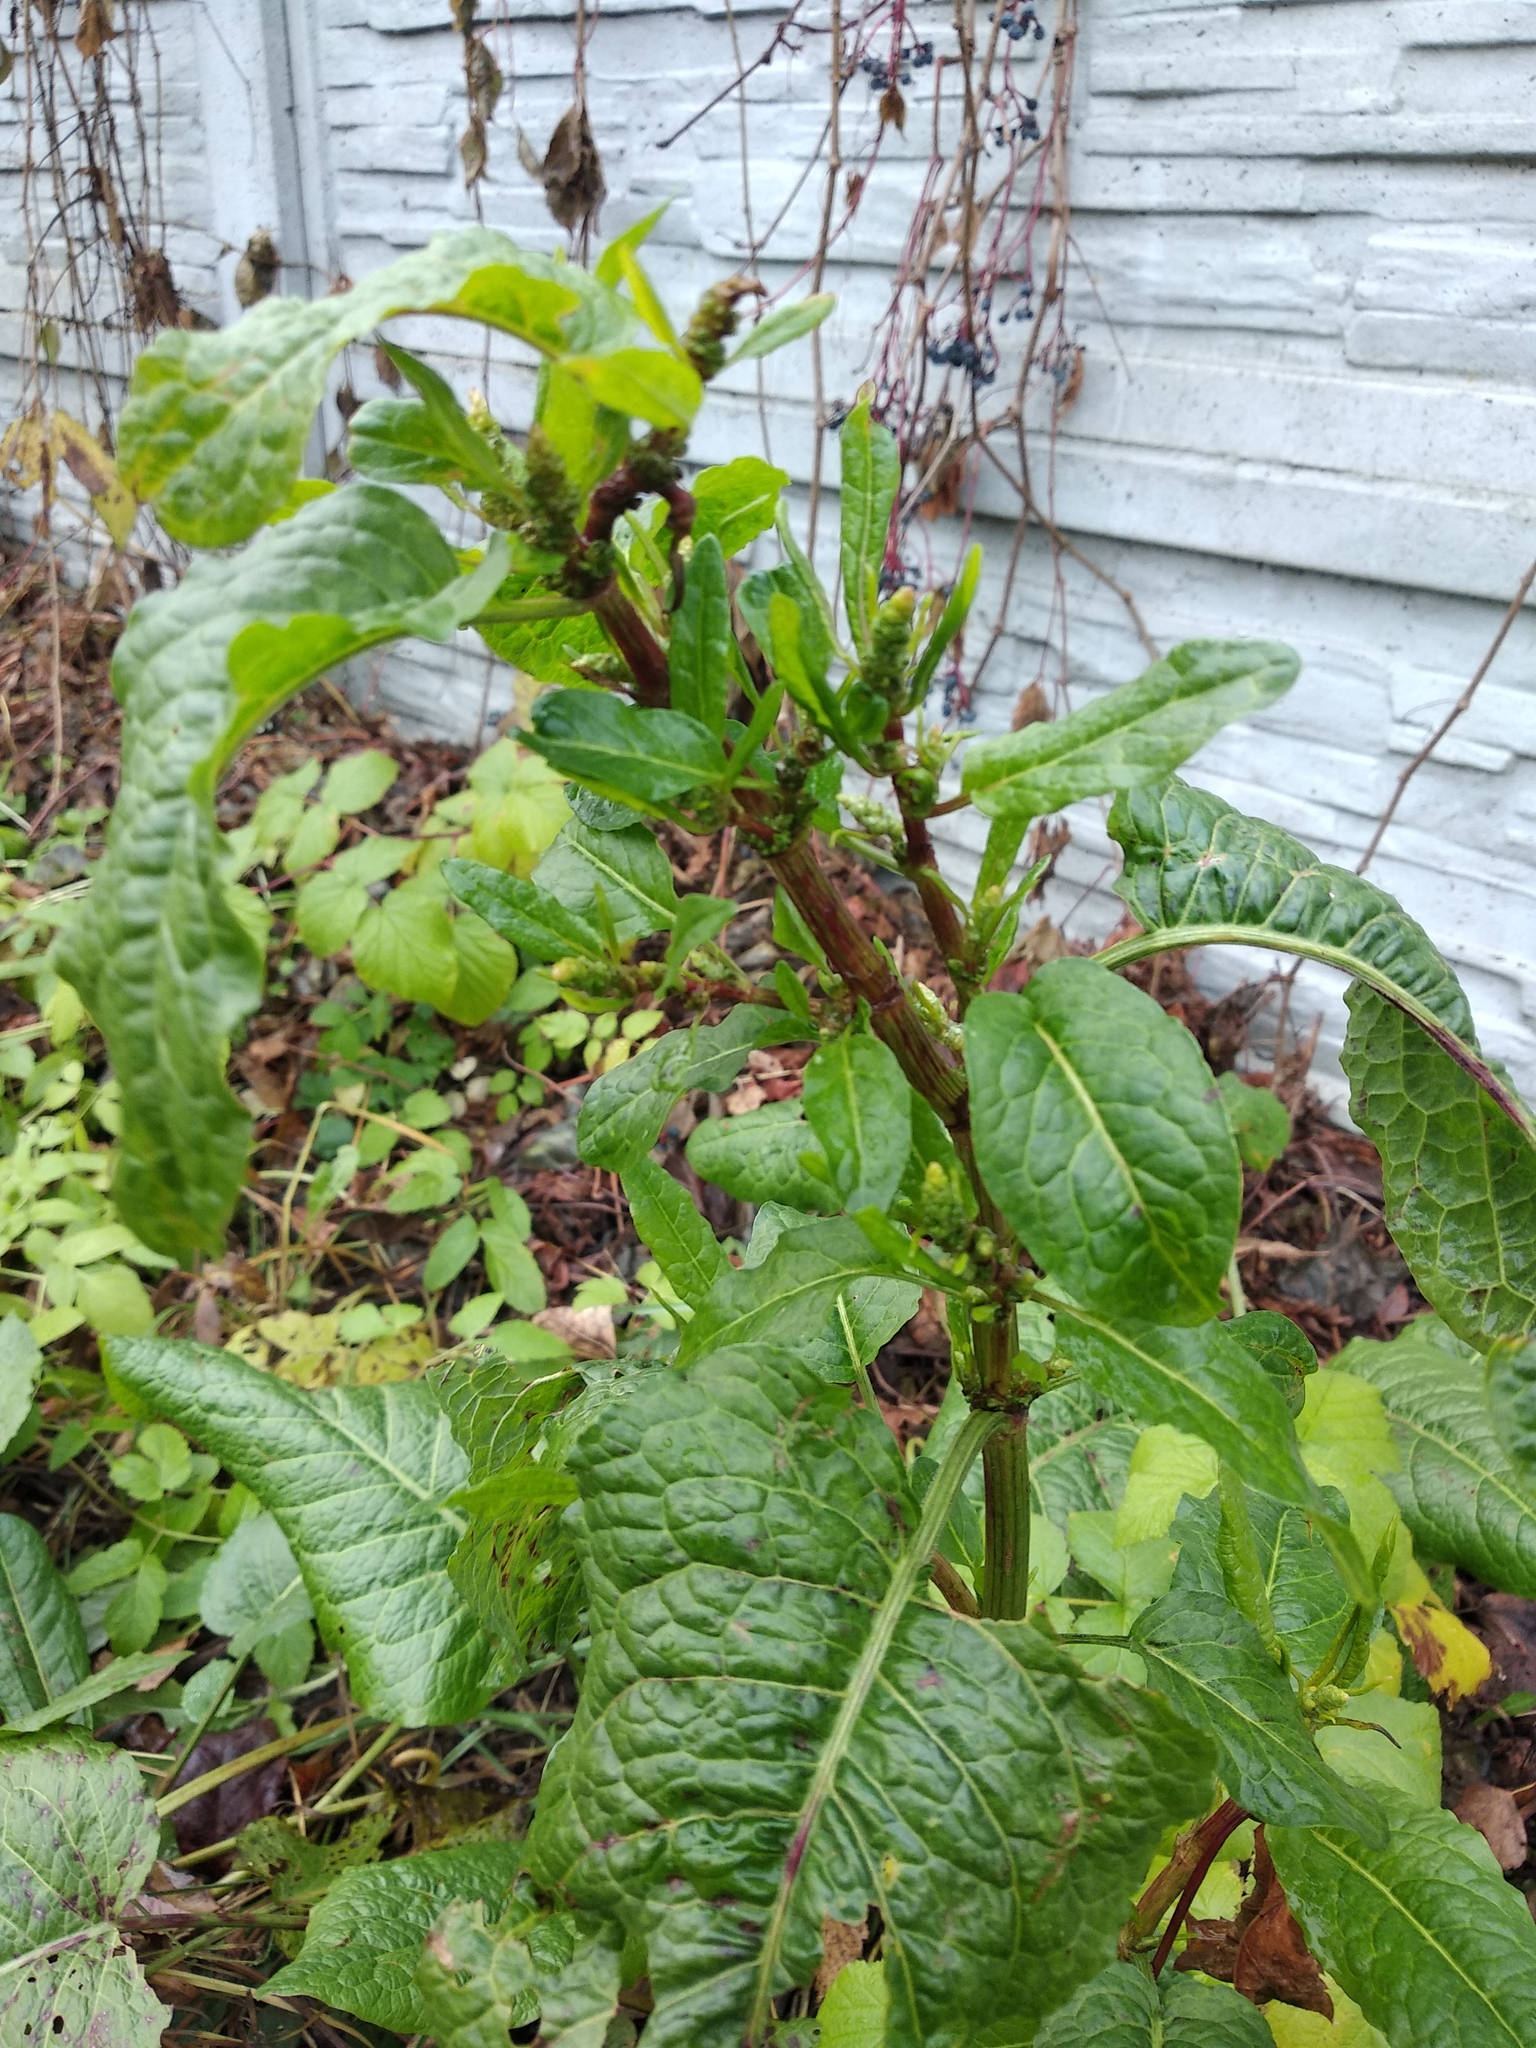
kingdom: Plantae
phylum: Tracheophyta
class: Magnoliopsida
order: Caryophyllales
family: Polygonaceae
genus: Rumex
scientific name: Rumex obtusifolius
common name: Bitter dock
